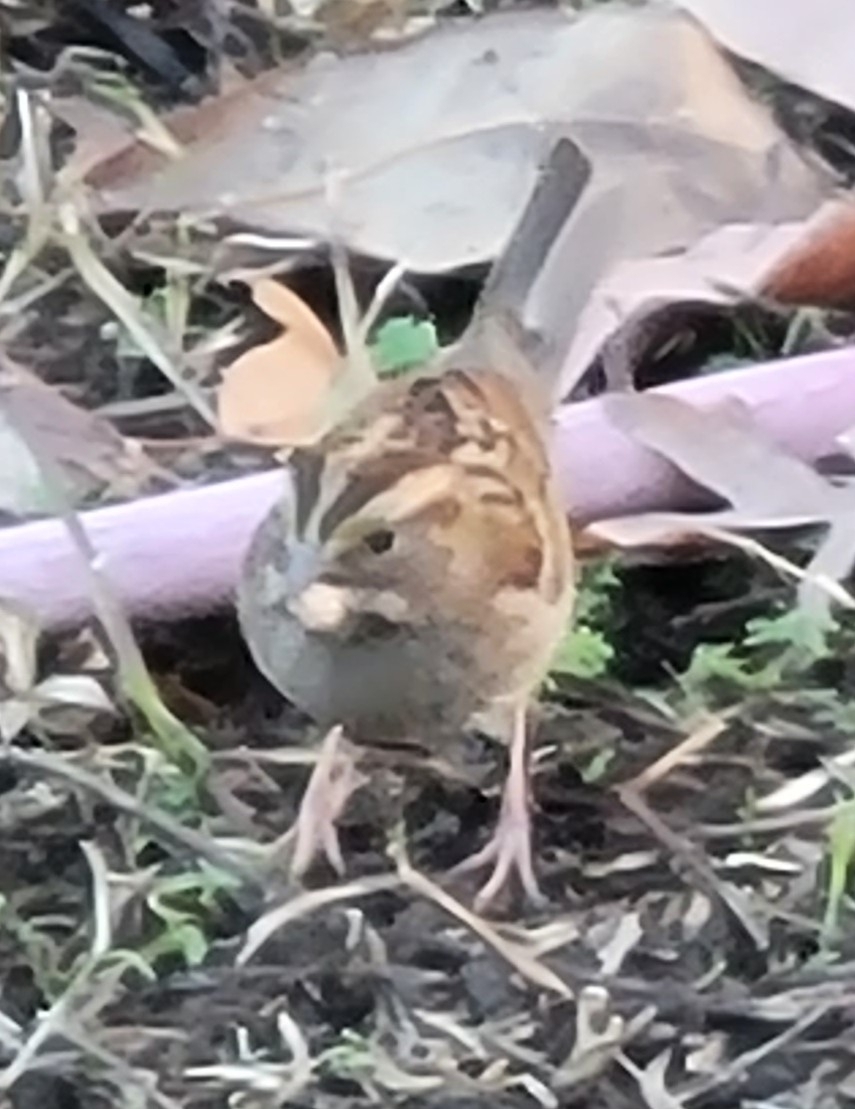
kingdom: Animalia
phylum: Chordata
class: Aves
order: Passeriformes
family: Passerellidae
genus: Zonotrichia
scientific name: Zonotrichia albicollis
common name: White-throated sparrow
